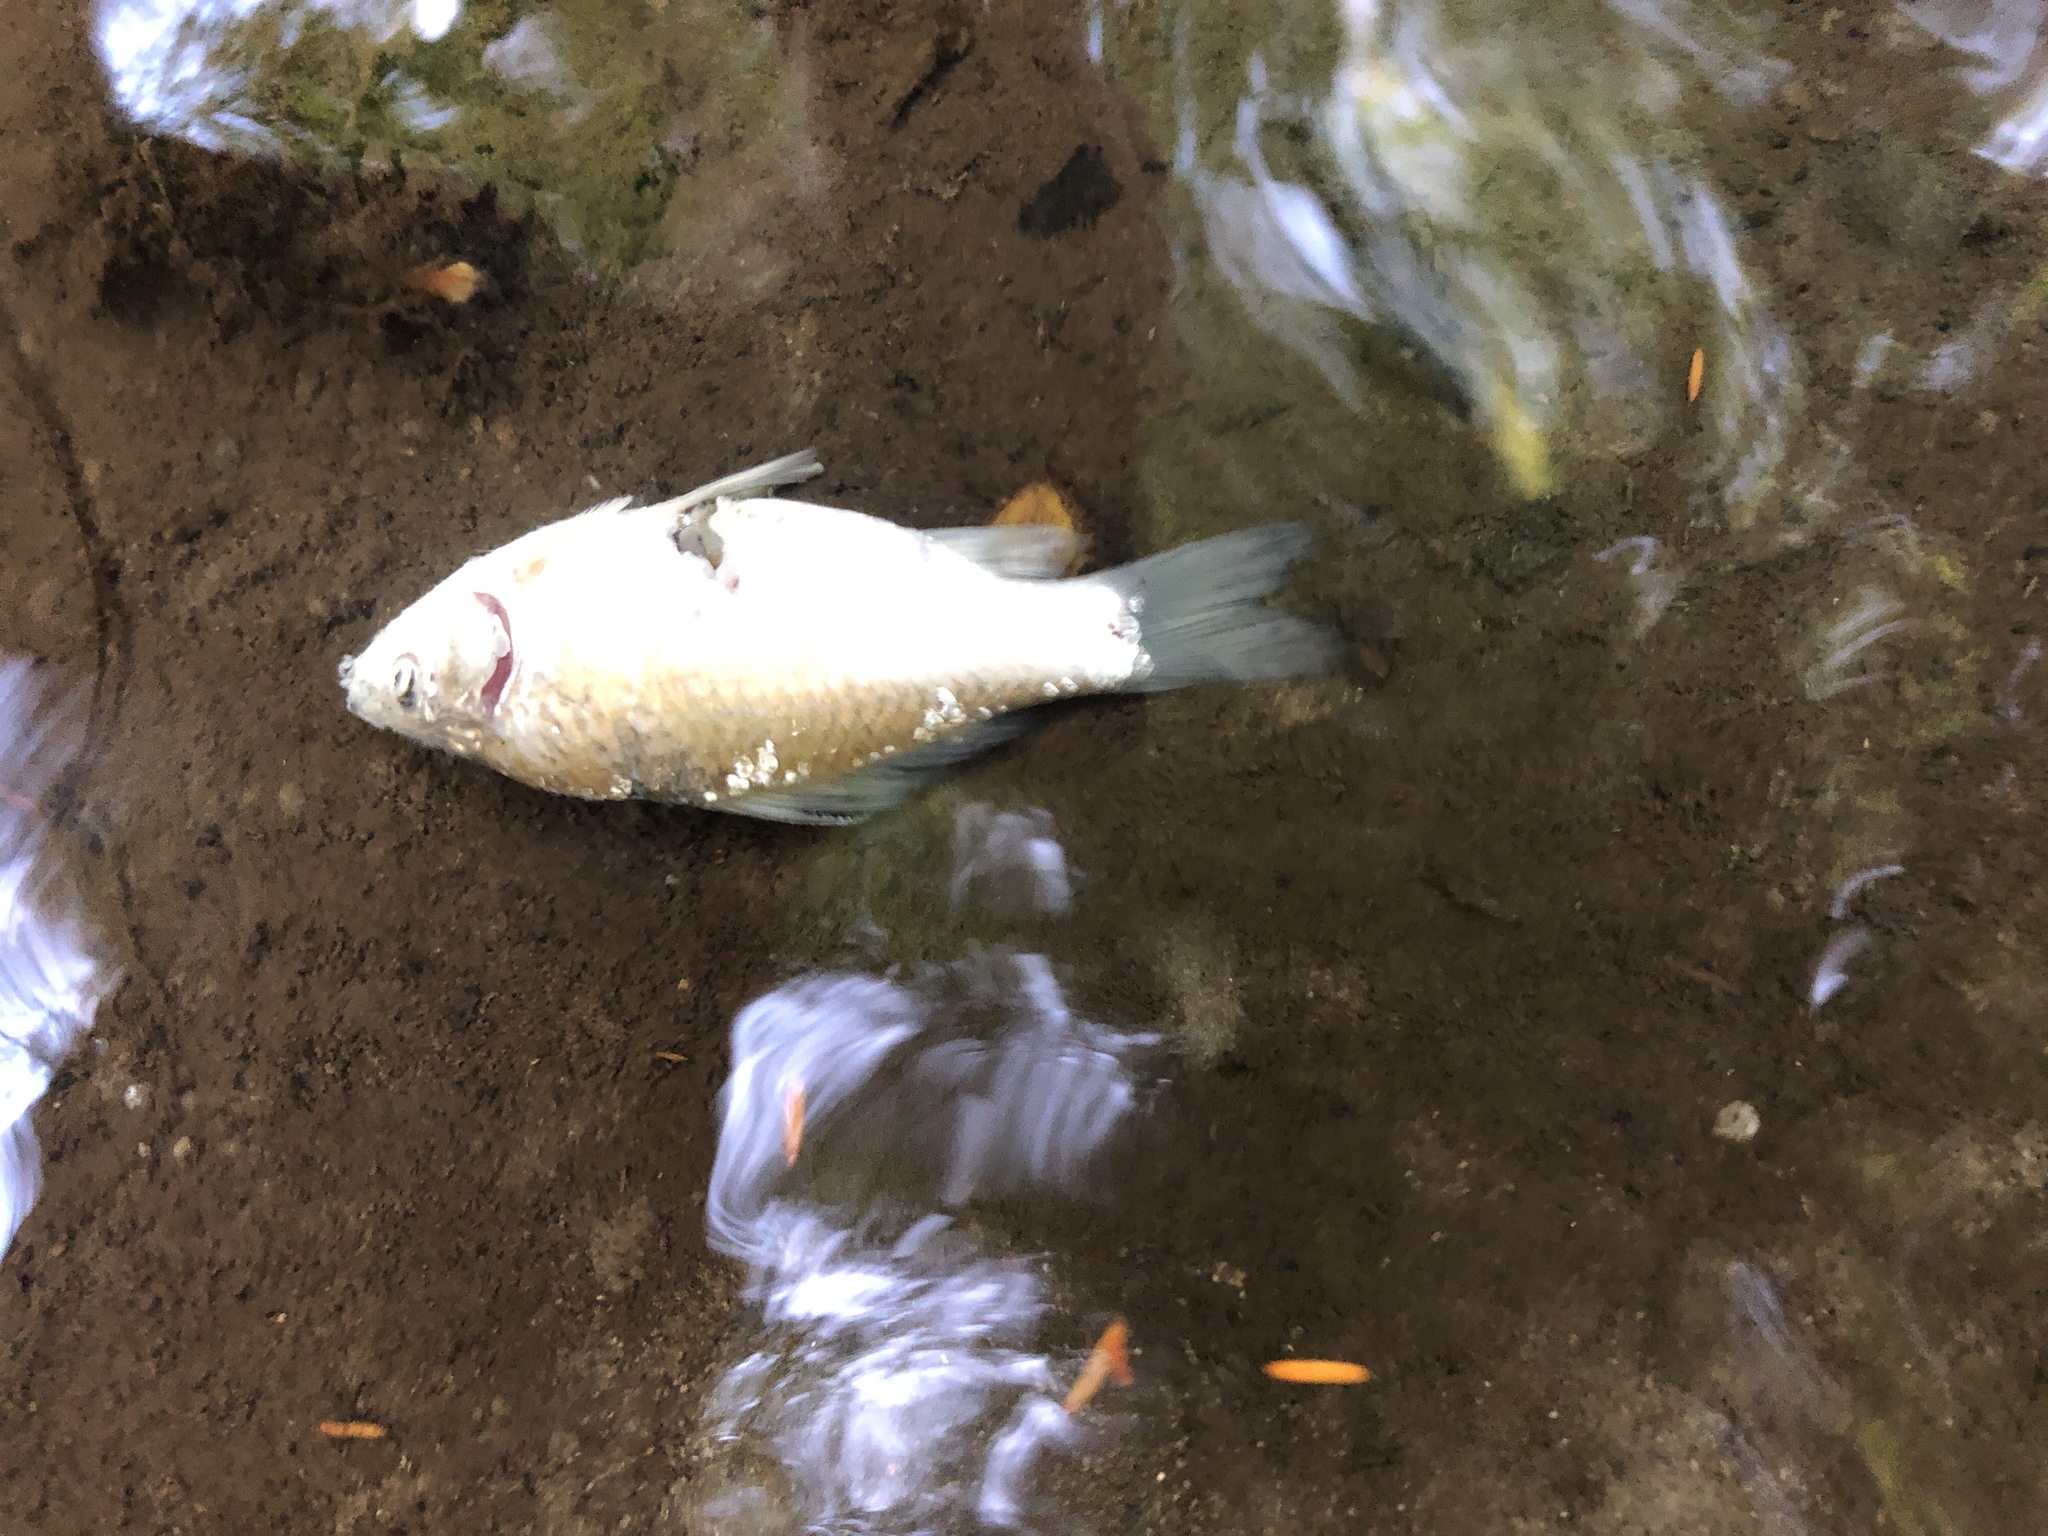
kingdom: Animalia
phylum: Chordata
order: Cypriniformes
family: Cyprinidae
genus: Carassius
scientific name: Carassius auratus
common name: Goldfish
